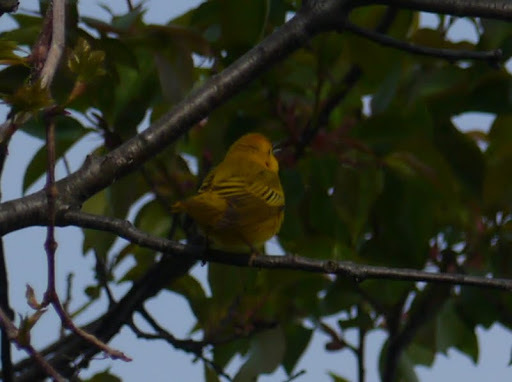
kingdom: Animalia
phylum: Chordata
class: Aves
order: Passeriformes
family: Parulidae
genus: Setophaga
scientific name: Setophaga petechia
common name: Yellow warbler
